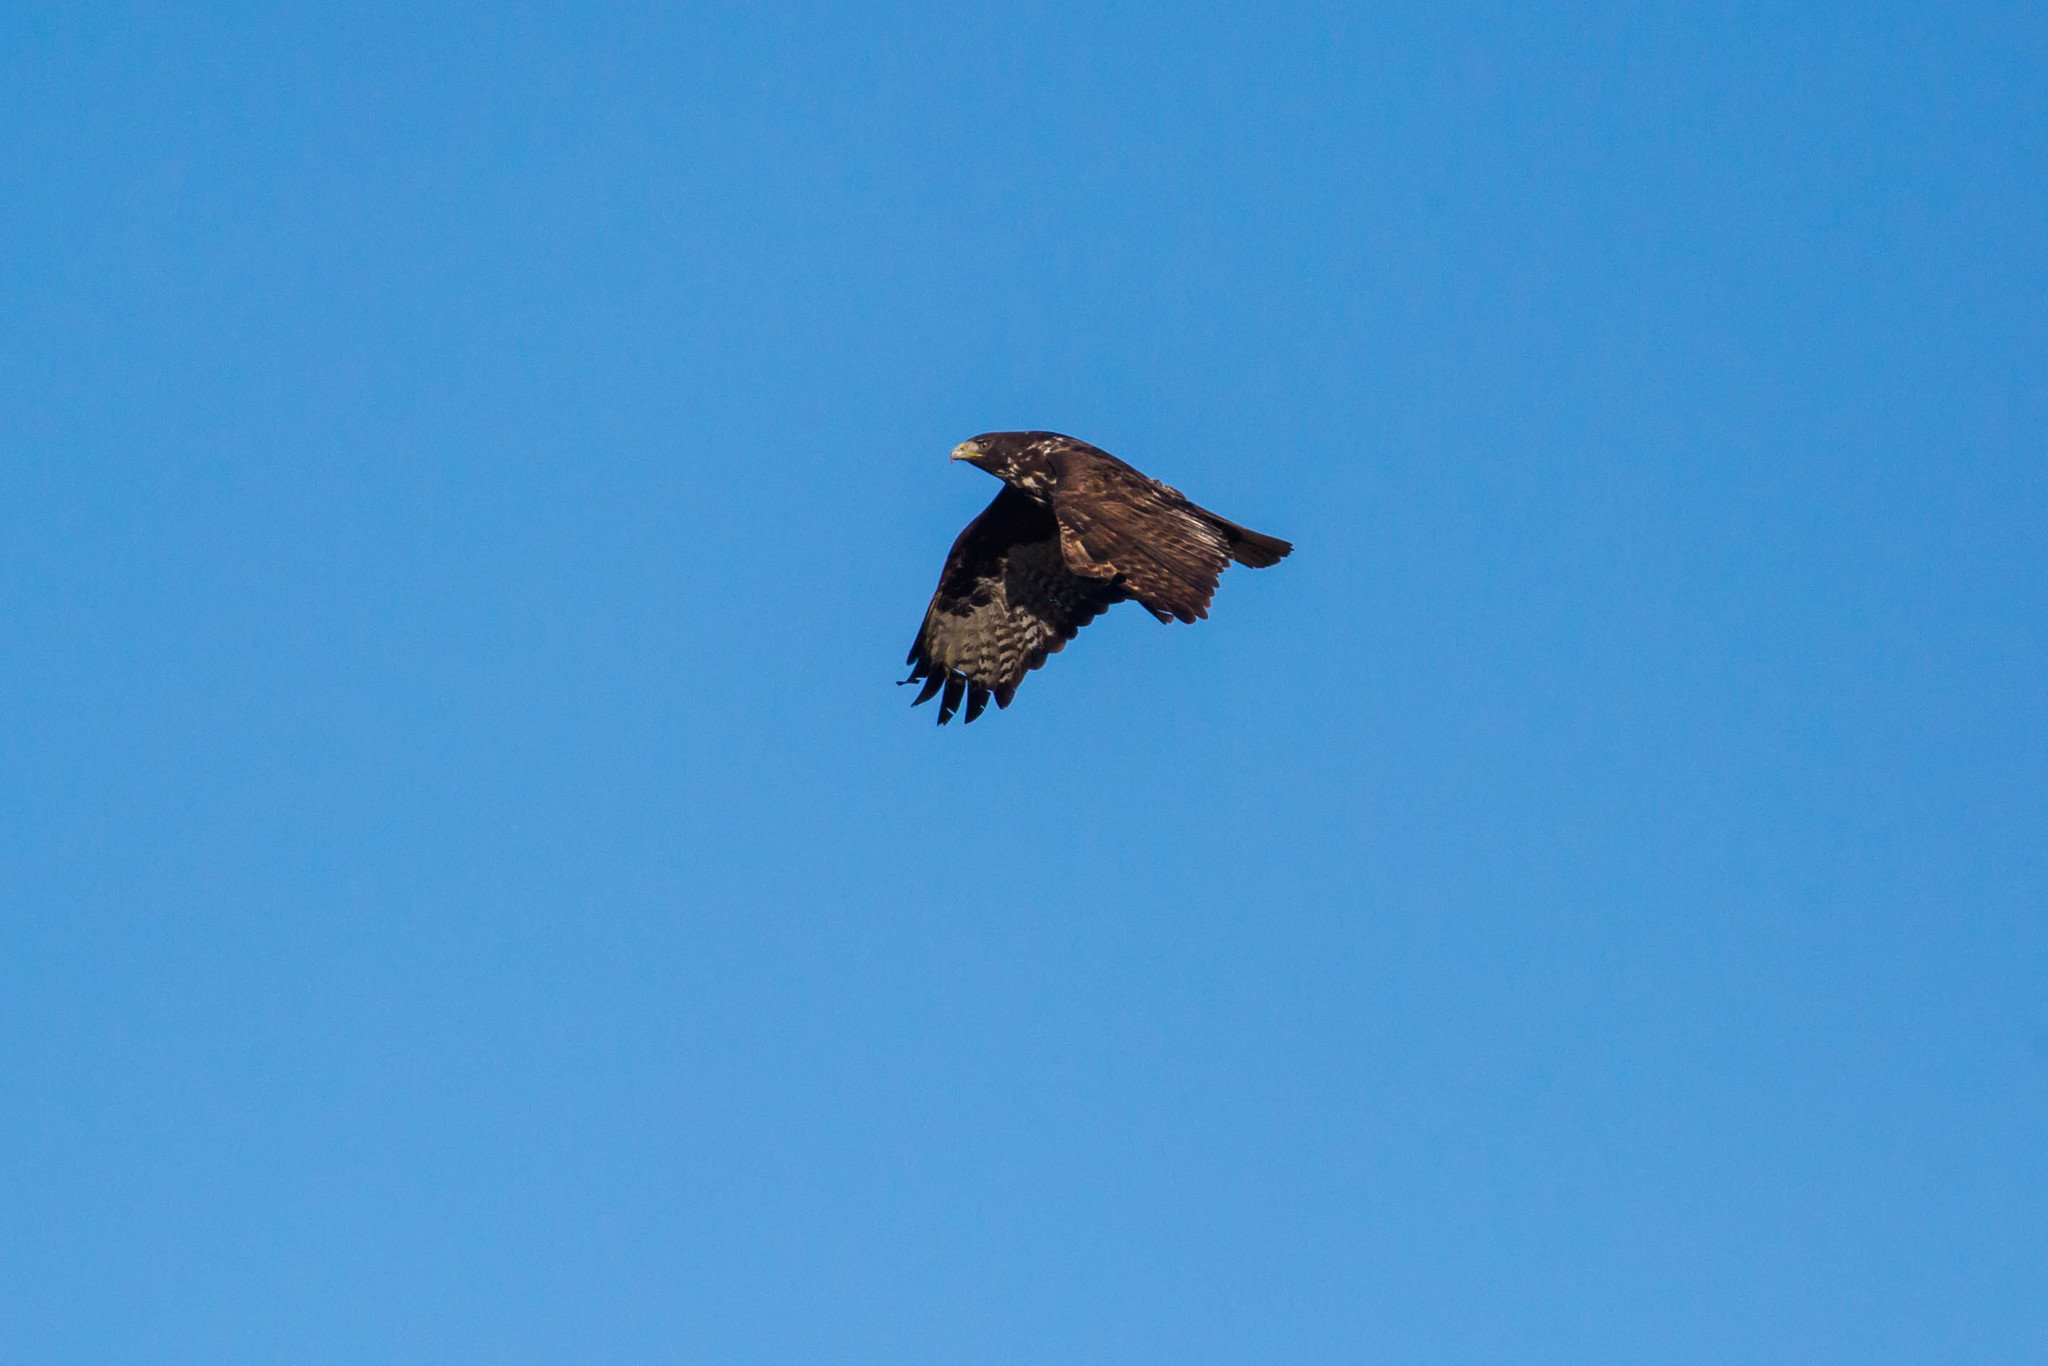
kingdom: Animalia
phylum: Chordata
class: Aves
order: Accipitriformes
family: Accipitridae
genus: Buteo
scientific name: Buteo jamaicensis
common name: Red-tailed hawk
